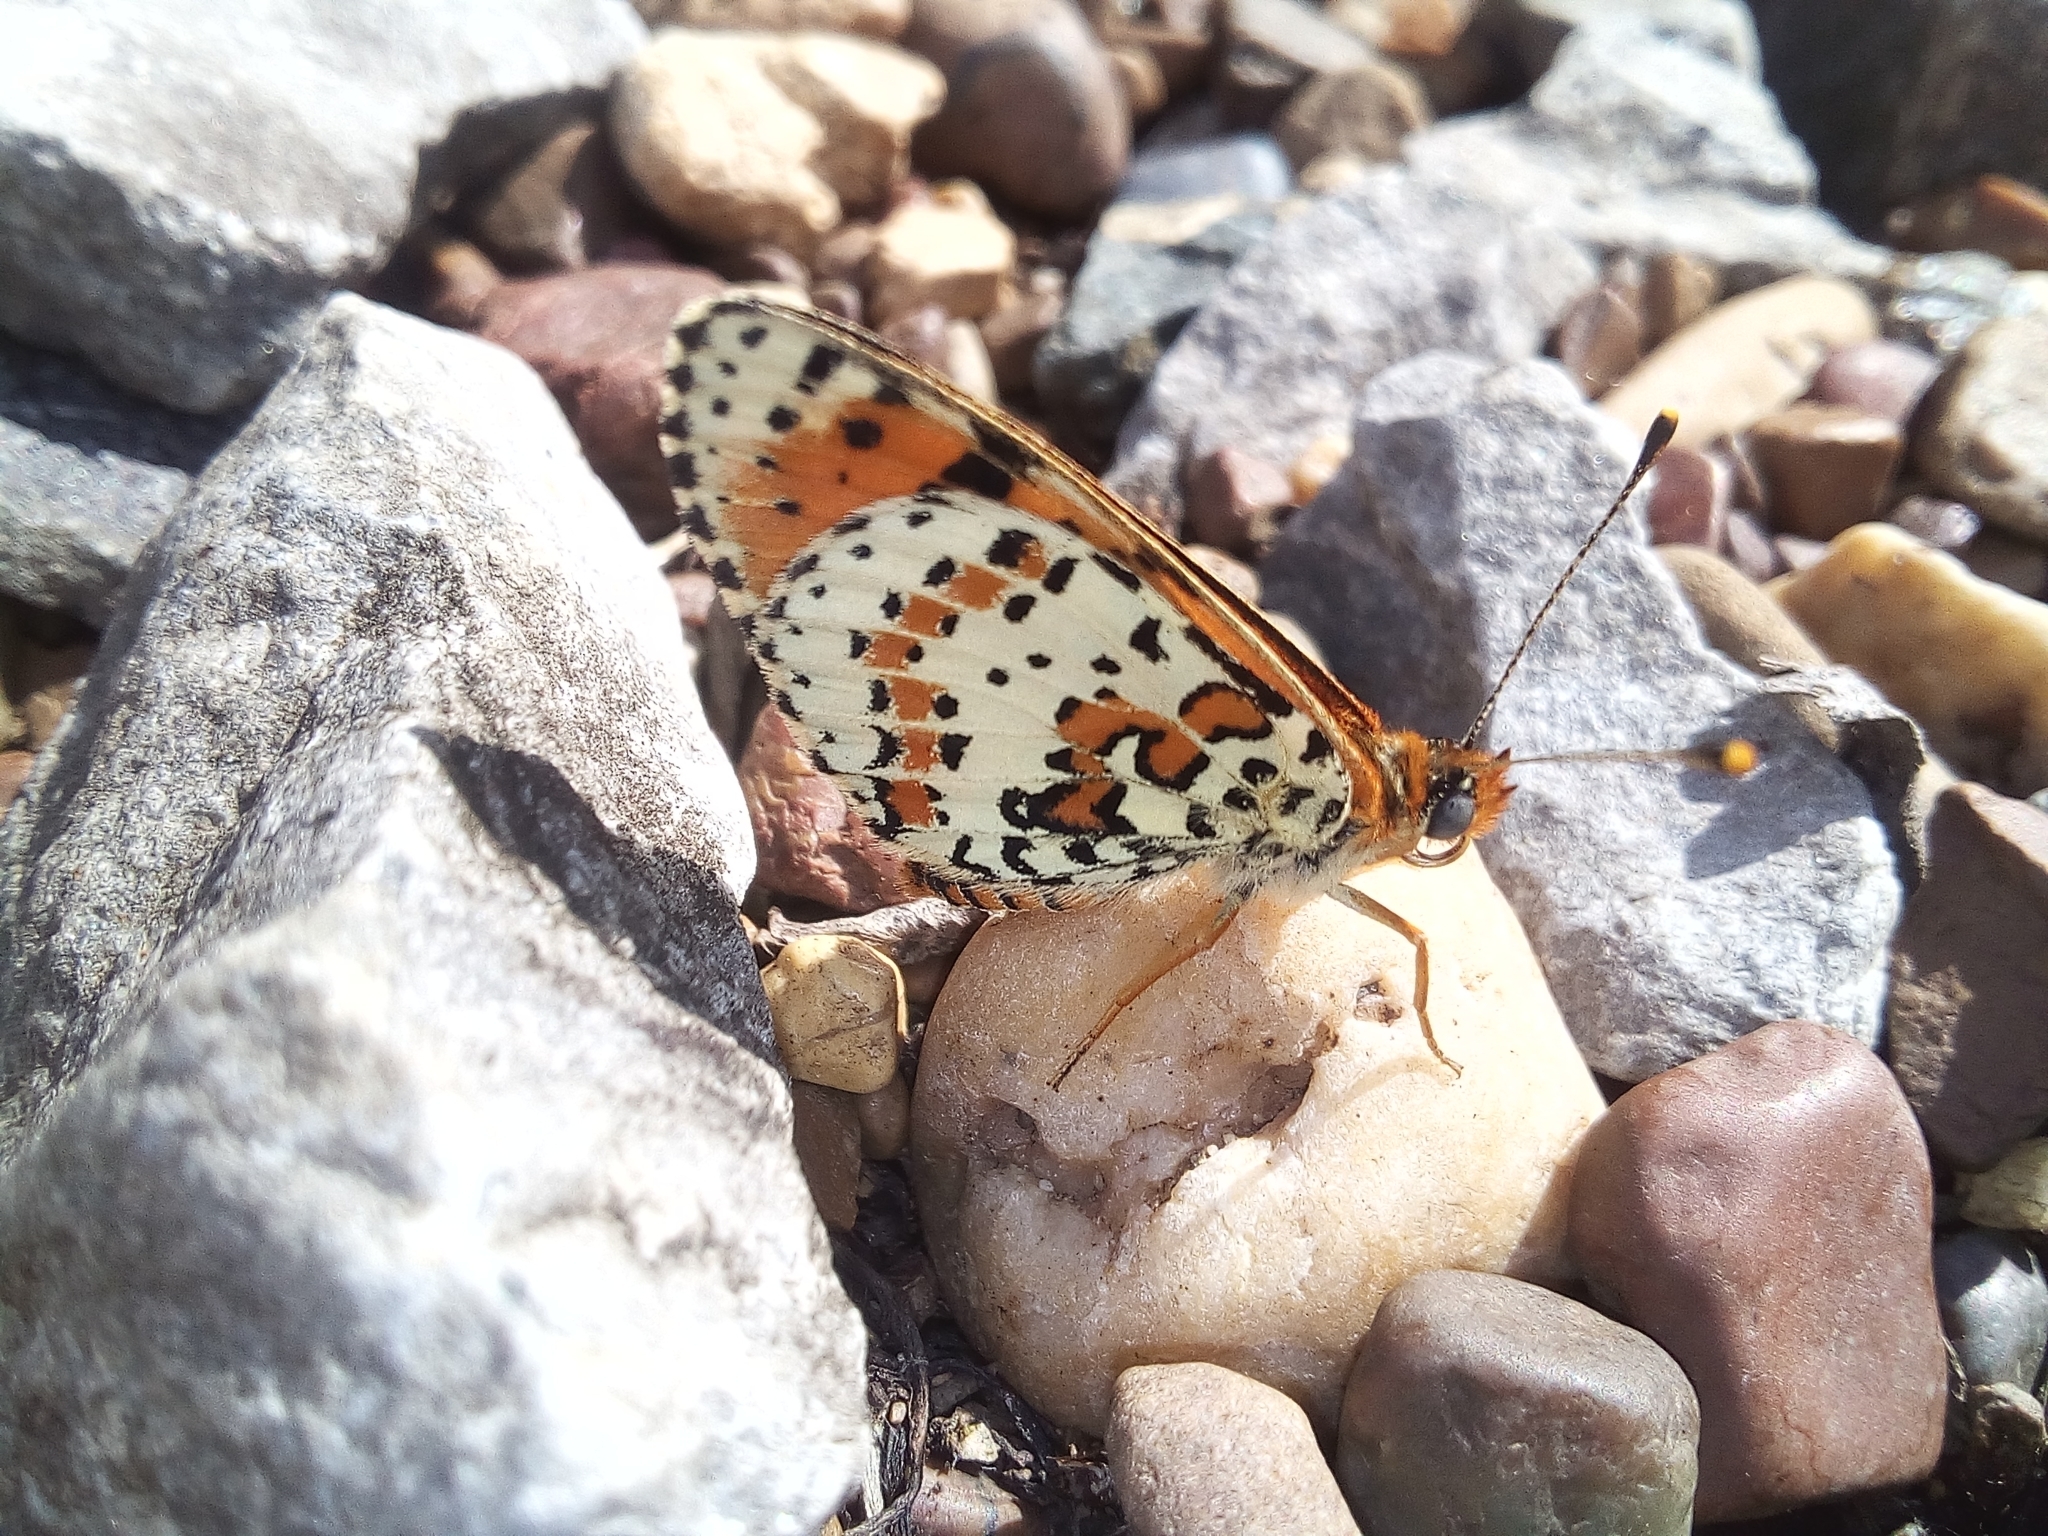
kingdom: Animalia
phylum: Arthropoda
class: Insecta
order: Lepidoptera
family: Nymphalidae
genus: Melitaea
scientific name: Melitaea didyma
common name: Spotted fritillary
